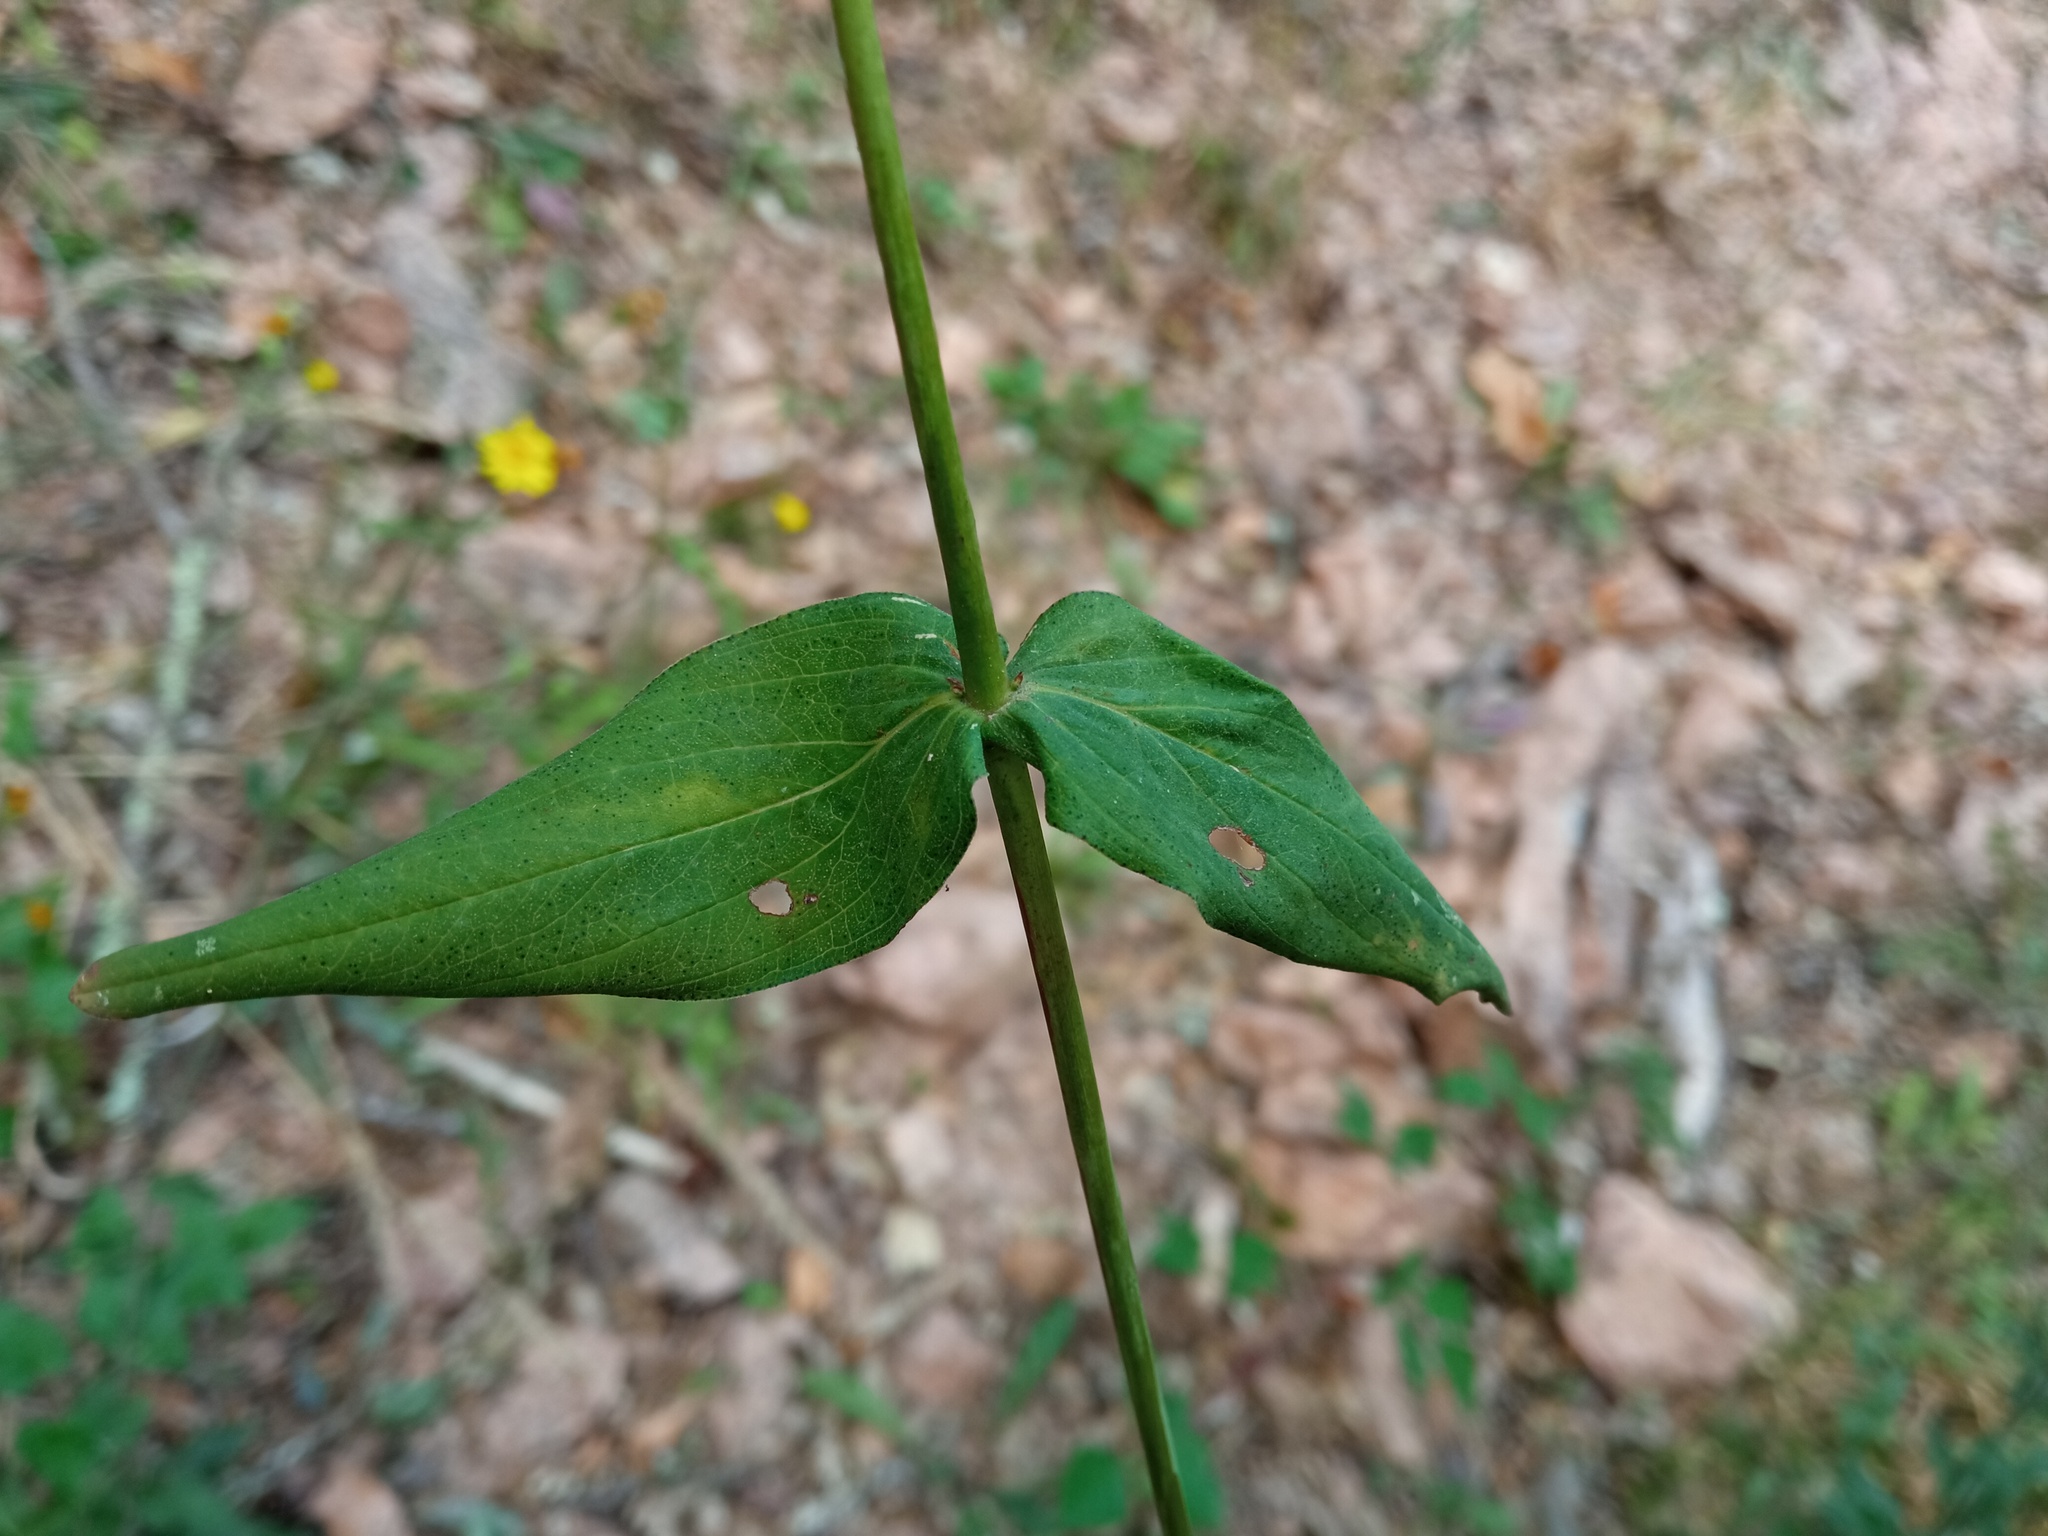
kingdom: Plantae
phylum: Tracheophyta
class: Magnoliopsida
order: Malpighiales
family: Hypericaceae
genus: Hypericum
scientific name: Hypericum montanum
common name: Pale st. john's-wort
